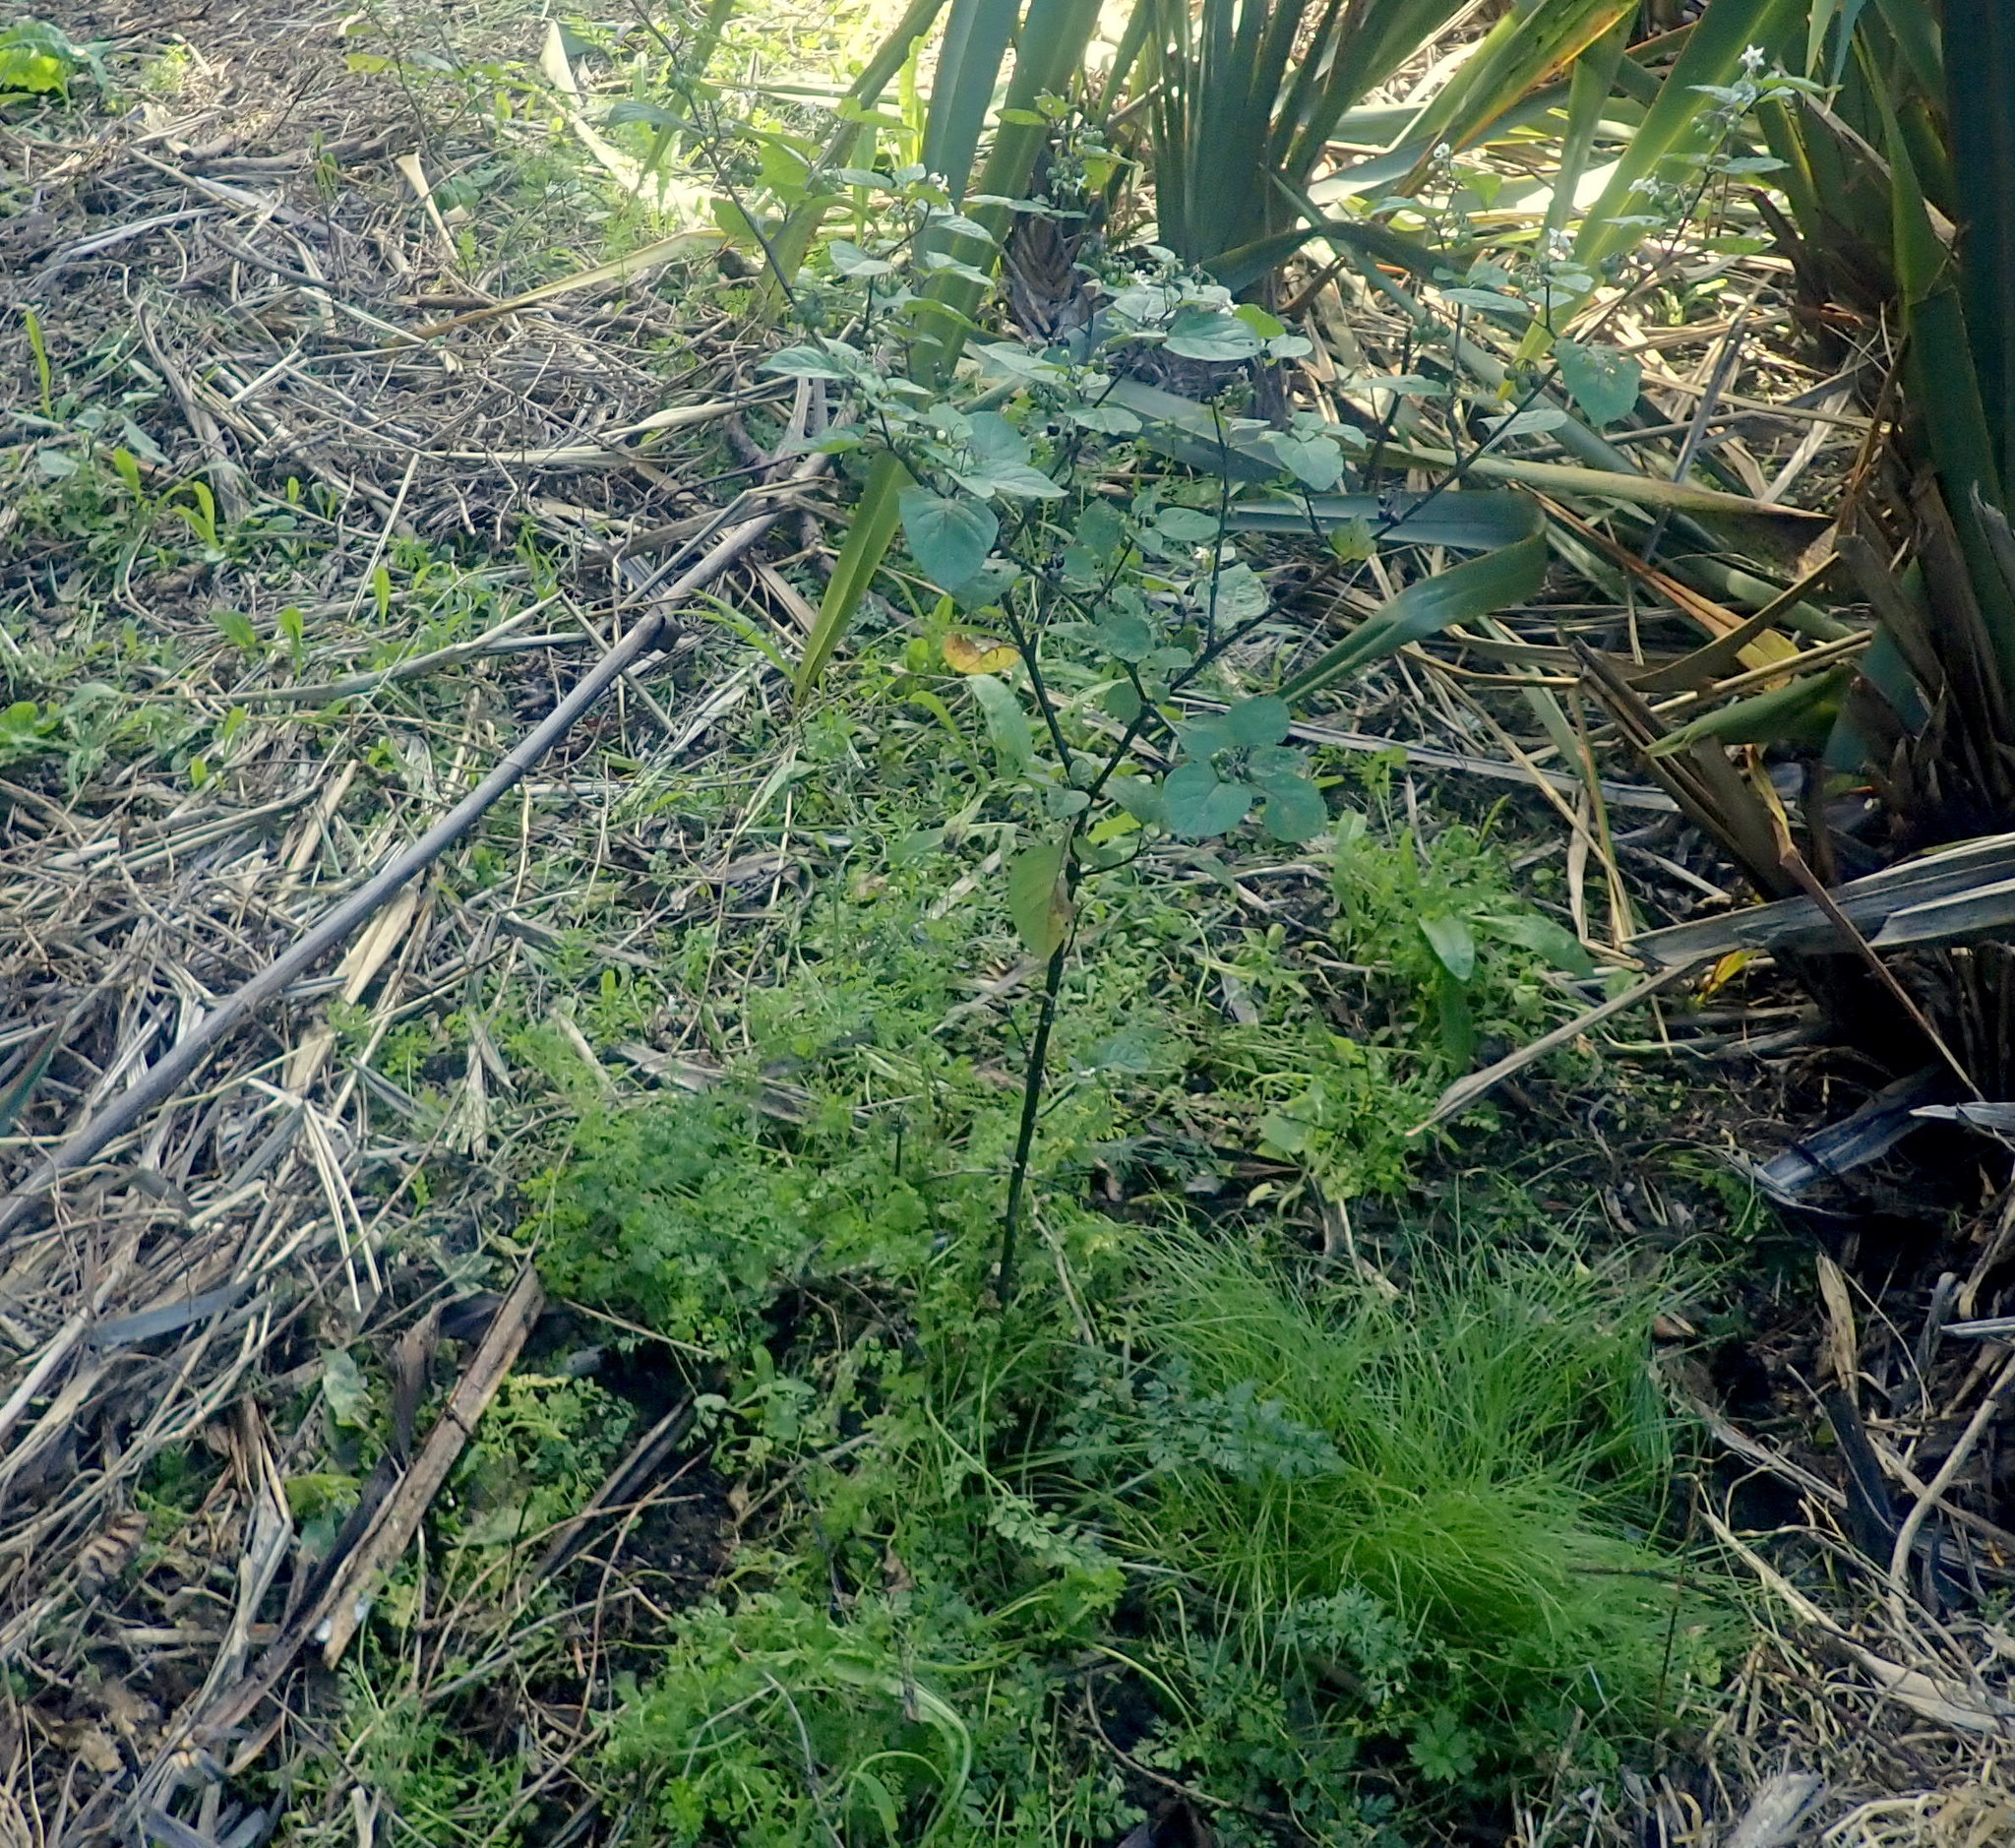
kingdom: Plantae
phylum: Tracheophyta
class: Magnoliopsida
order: Solanales
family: Solanaceae
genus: Solanum
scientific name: Solanum nigrum
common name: Black nightshade
